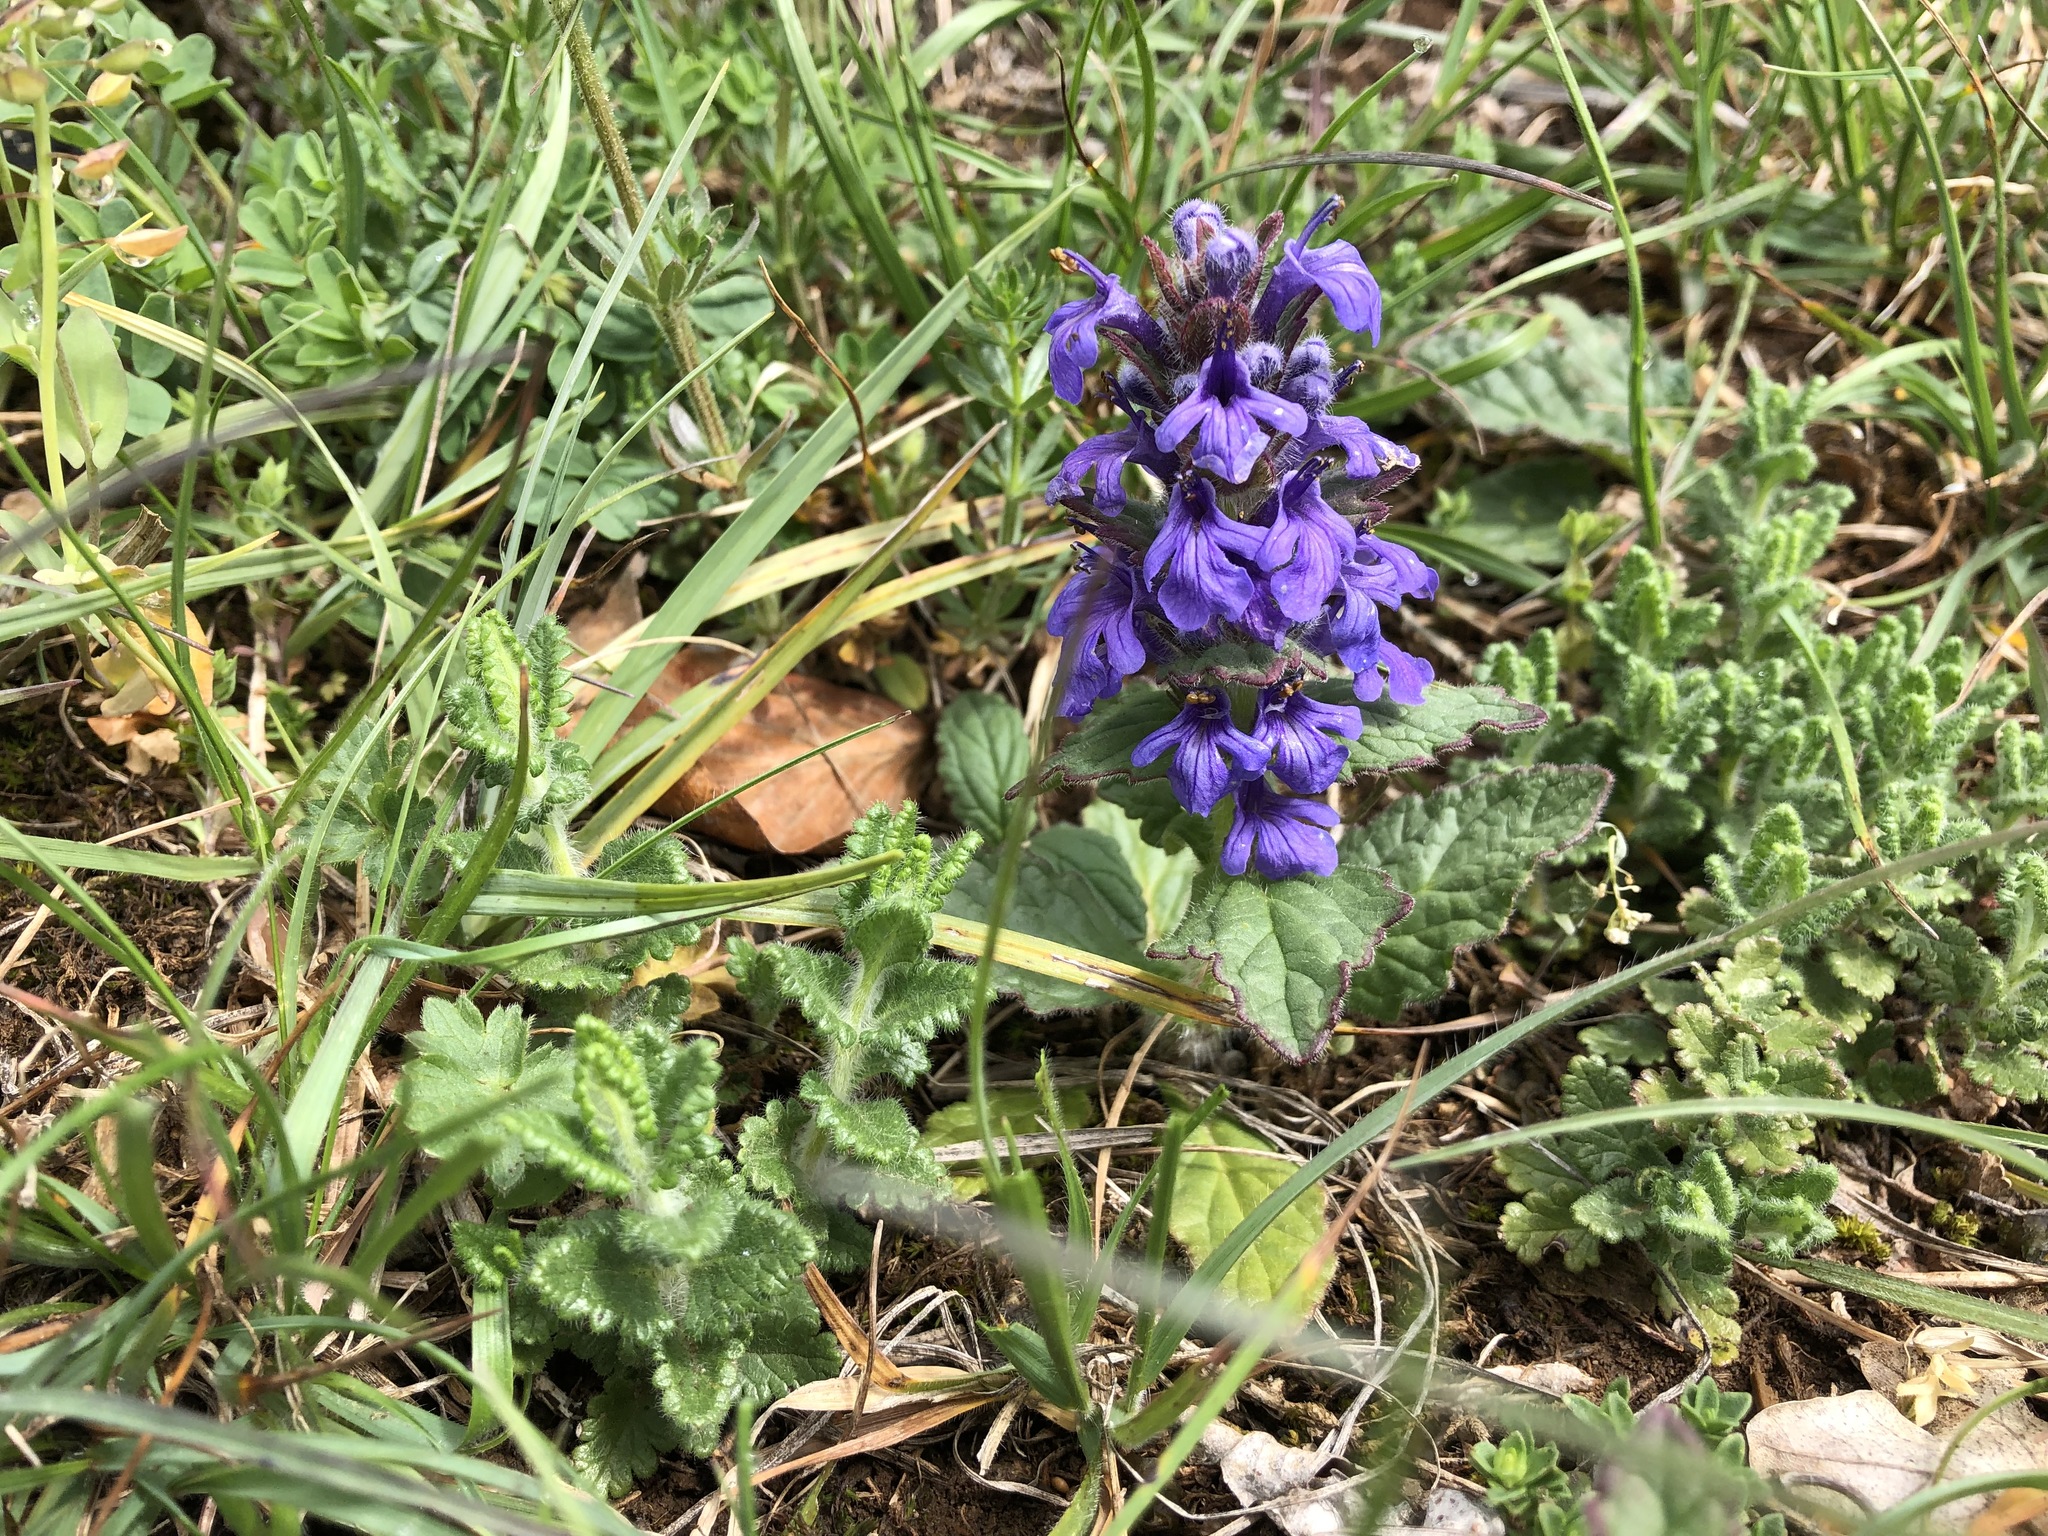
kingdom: Plantae
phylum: Tracheophyta
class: Magnoliopsida
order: Lamiales
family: Lamiaceae
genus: Ajuga
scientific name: Ajuga genevensis
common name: Blue bugle
